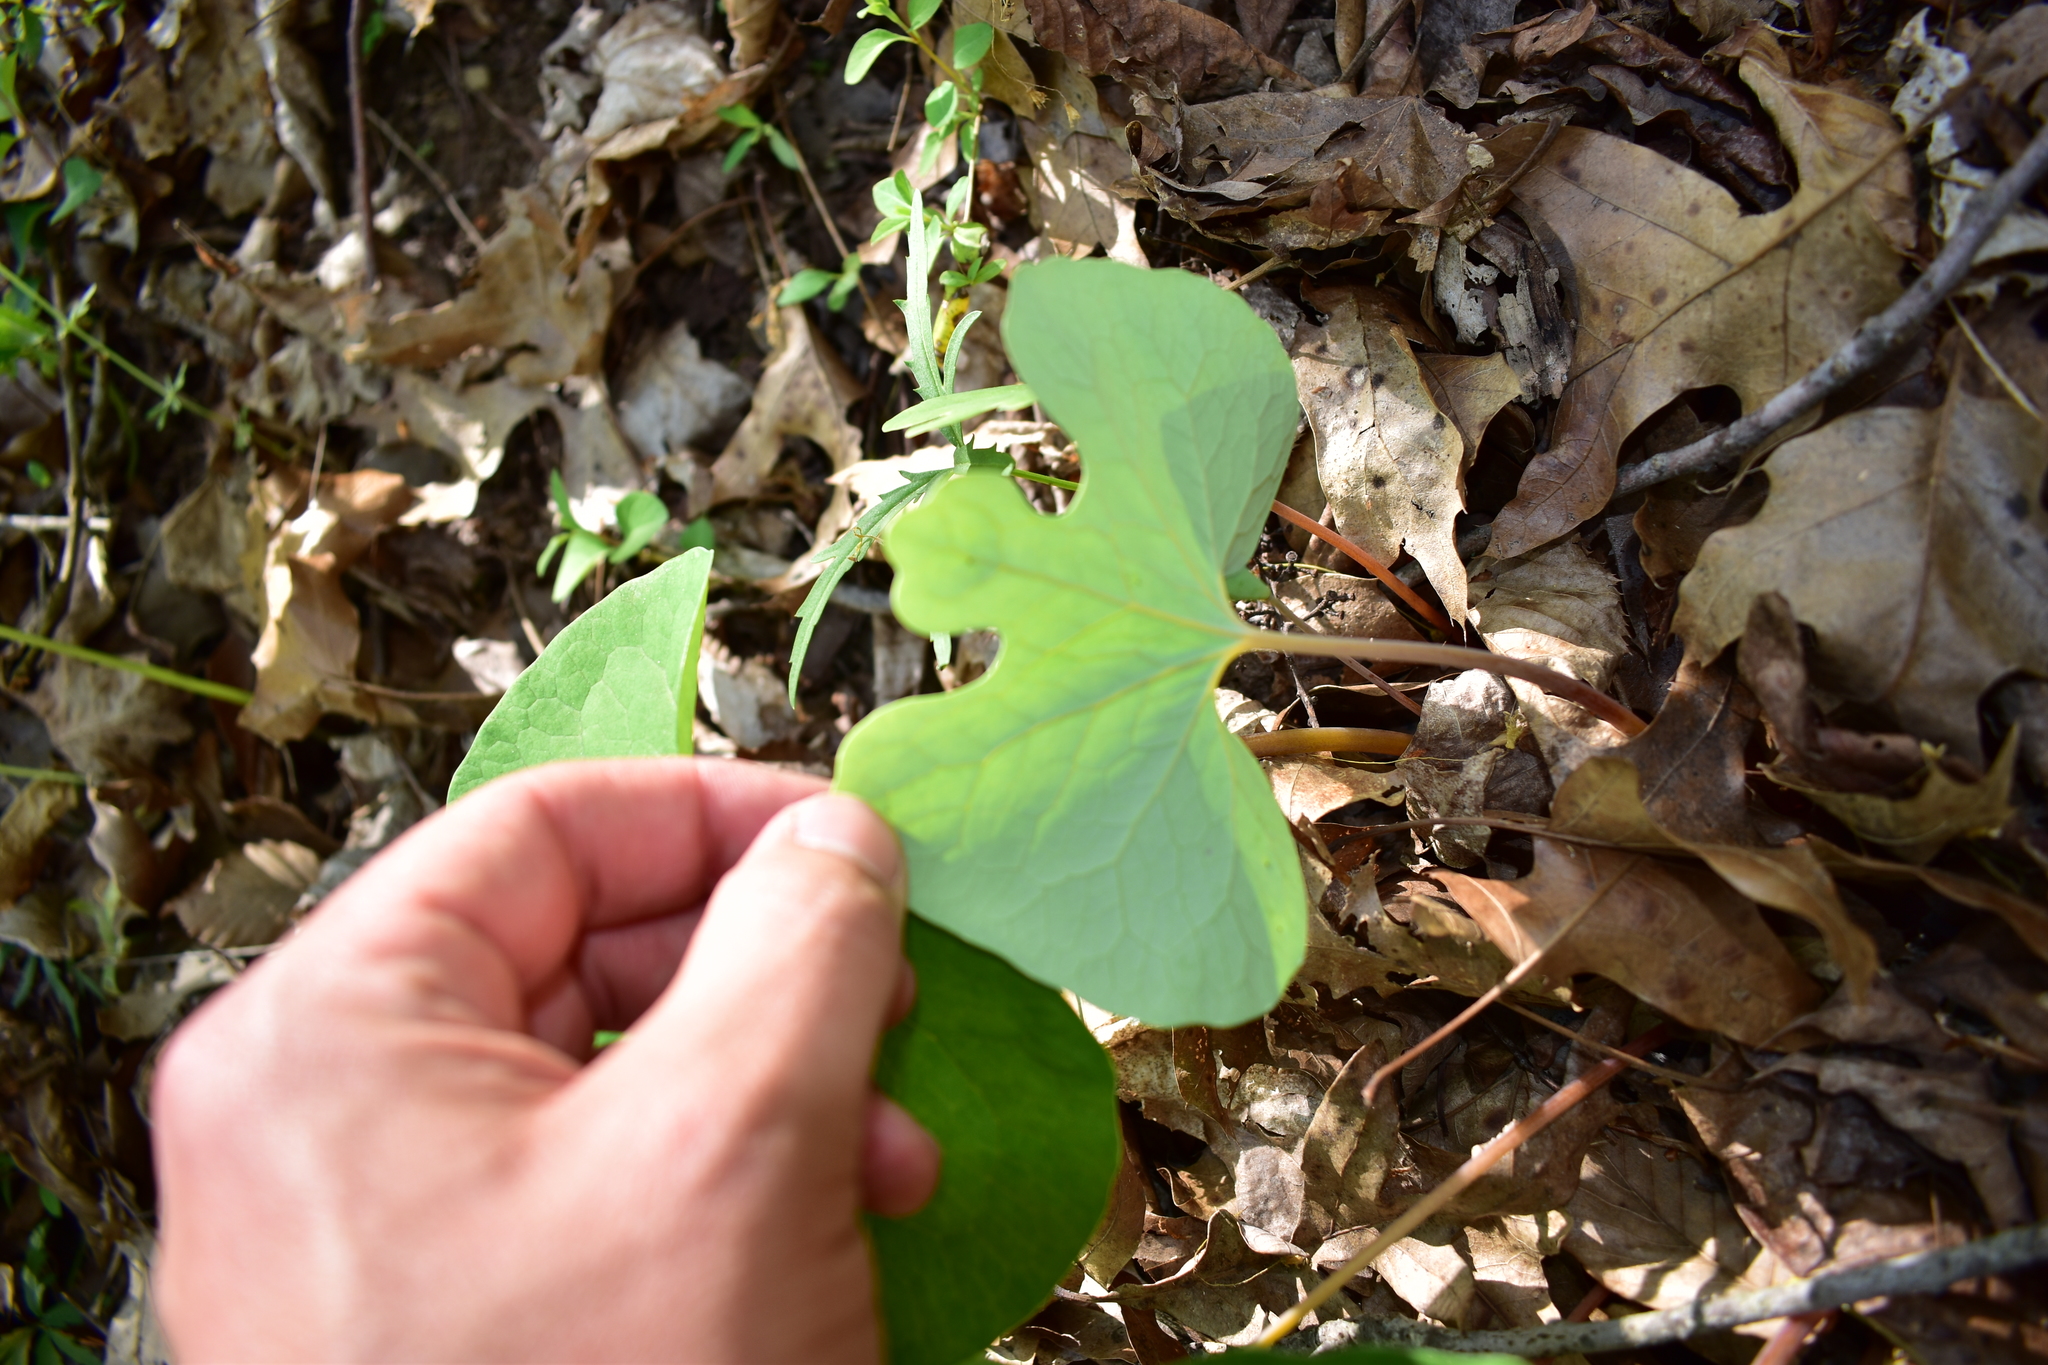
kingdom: Plantae
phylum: Tracheophyta
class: Magnoliopsida
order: Ranunculales
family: Papaveraceae
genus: Sanguinaria
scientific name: Sanguinaria canadensis
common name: Bloodroot
